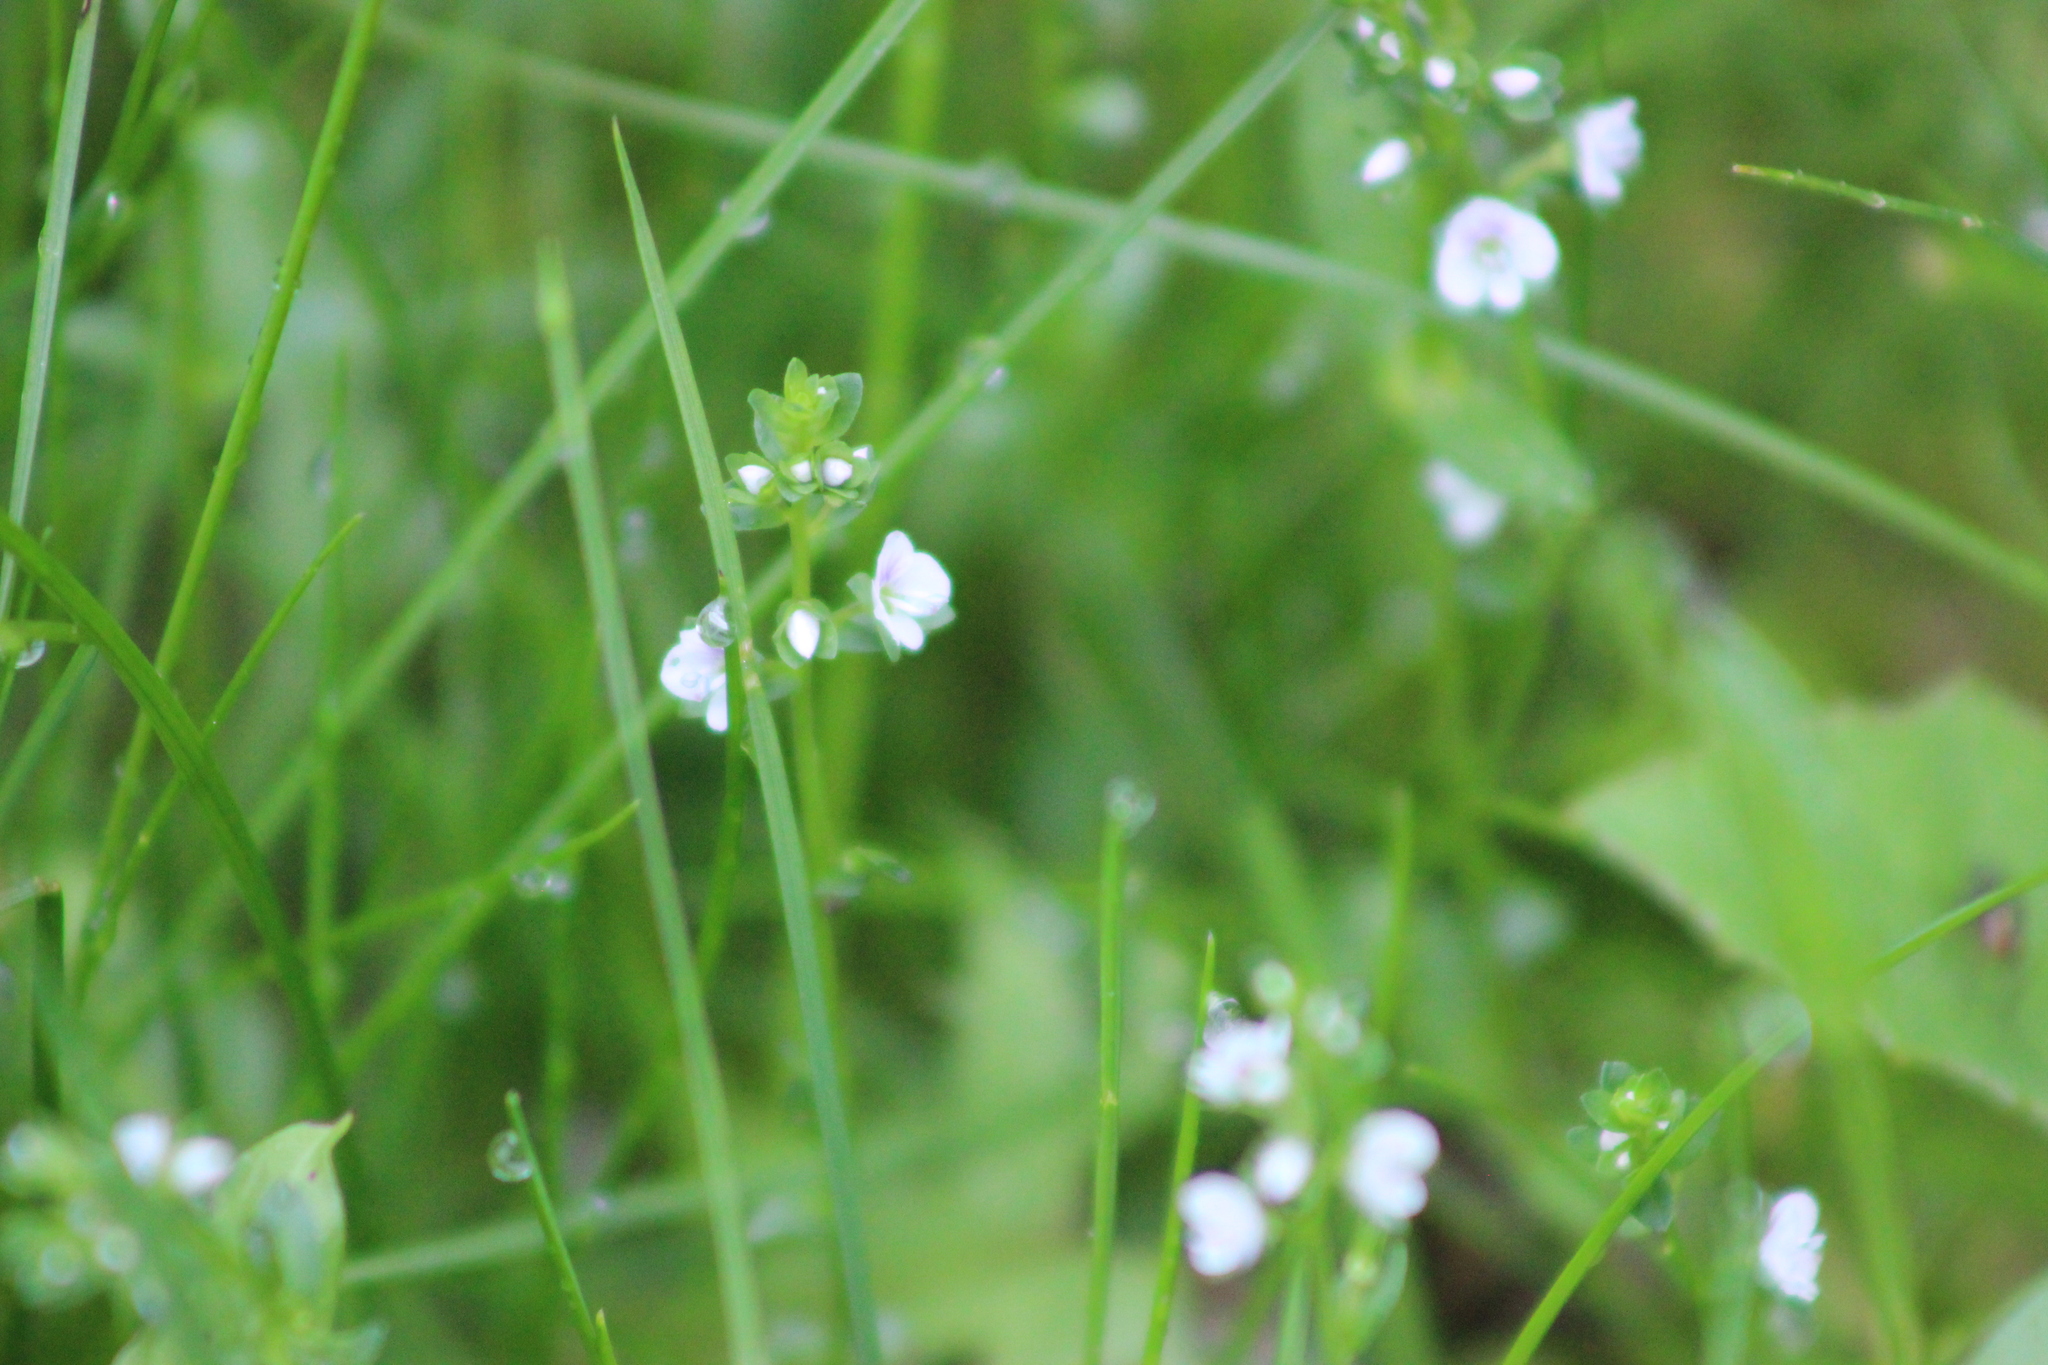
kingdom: Plantae
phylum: Tracheophyta
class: Magnoliopsida
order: Lamiales
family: Plantaginaceae
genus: Veronica
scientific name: Veronica serpyllifolia
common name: Thyme-leaved speedwell
